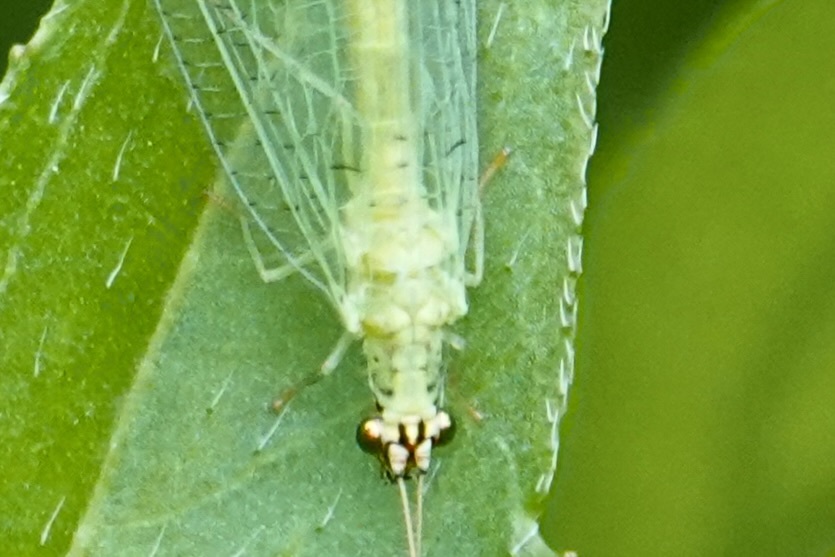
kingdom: Animalia
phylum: Arthropoda
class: Insecta
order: Neuroptera
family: Chrysopidae
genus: Chrysopa
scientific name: Chrysopa oculata
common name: Golden-eyed lacewing
